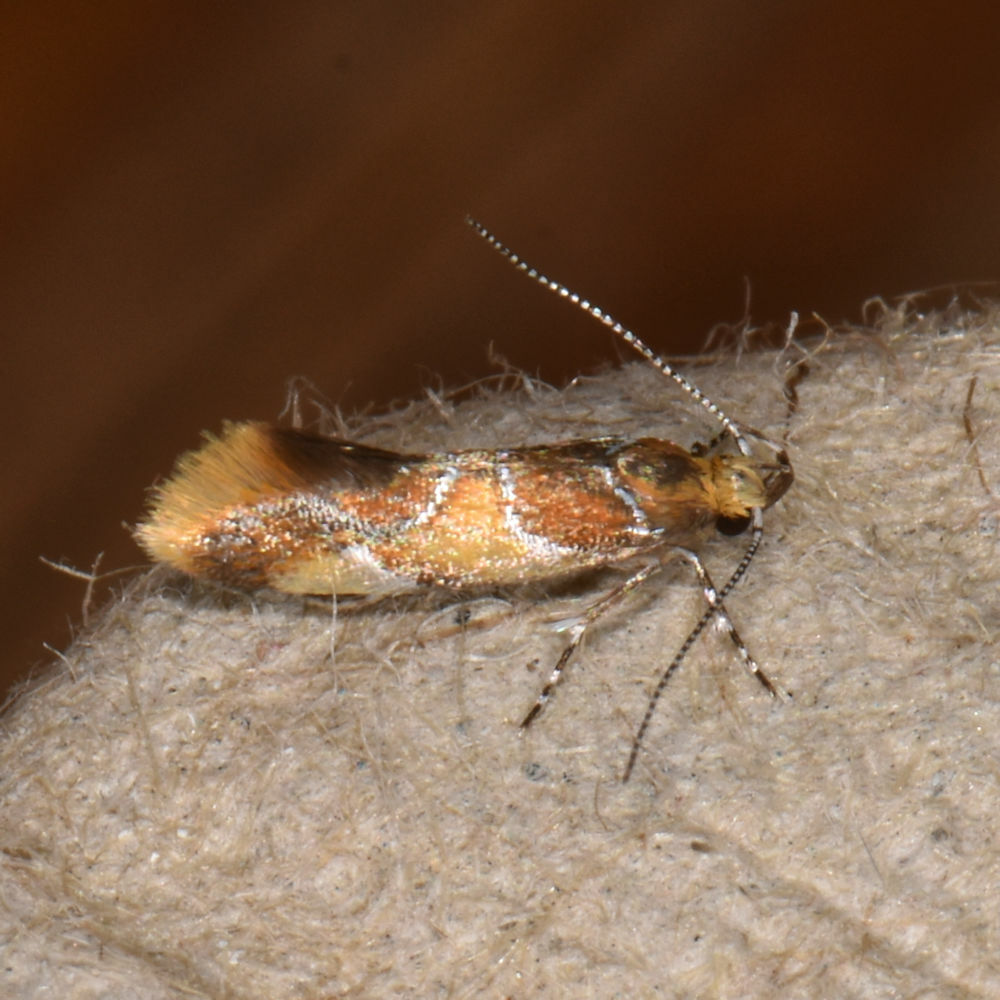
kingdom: Animalia
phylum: Arthropoda
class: Insecta
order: Lepidoptera
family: Oecophoridae
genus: Callima
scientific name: Callima argenticinctella
